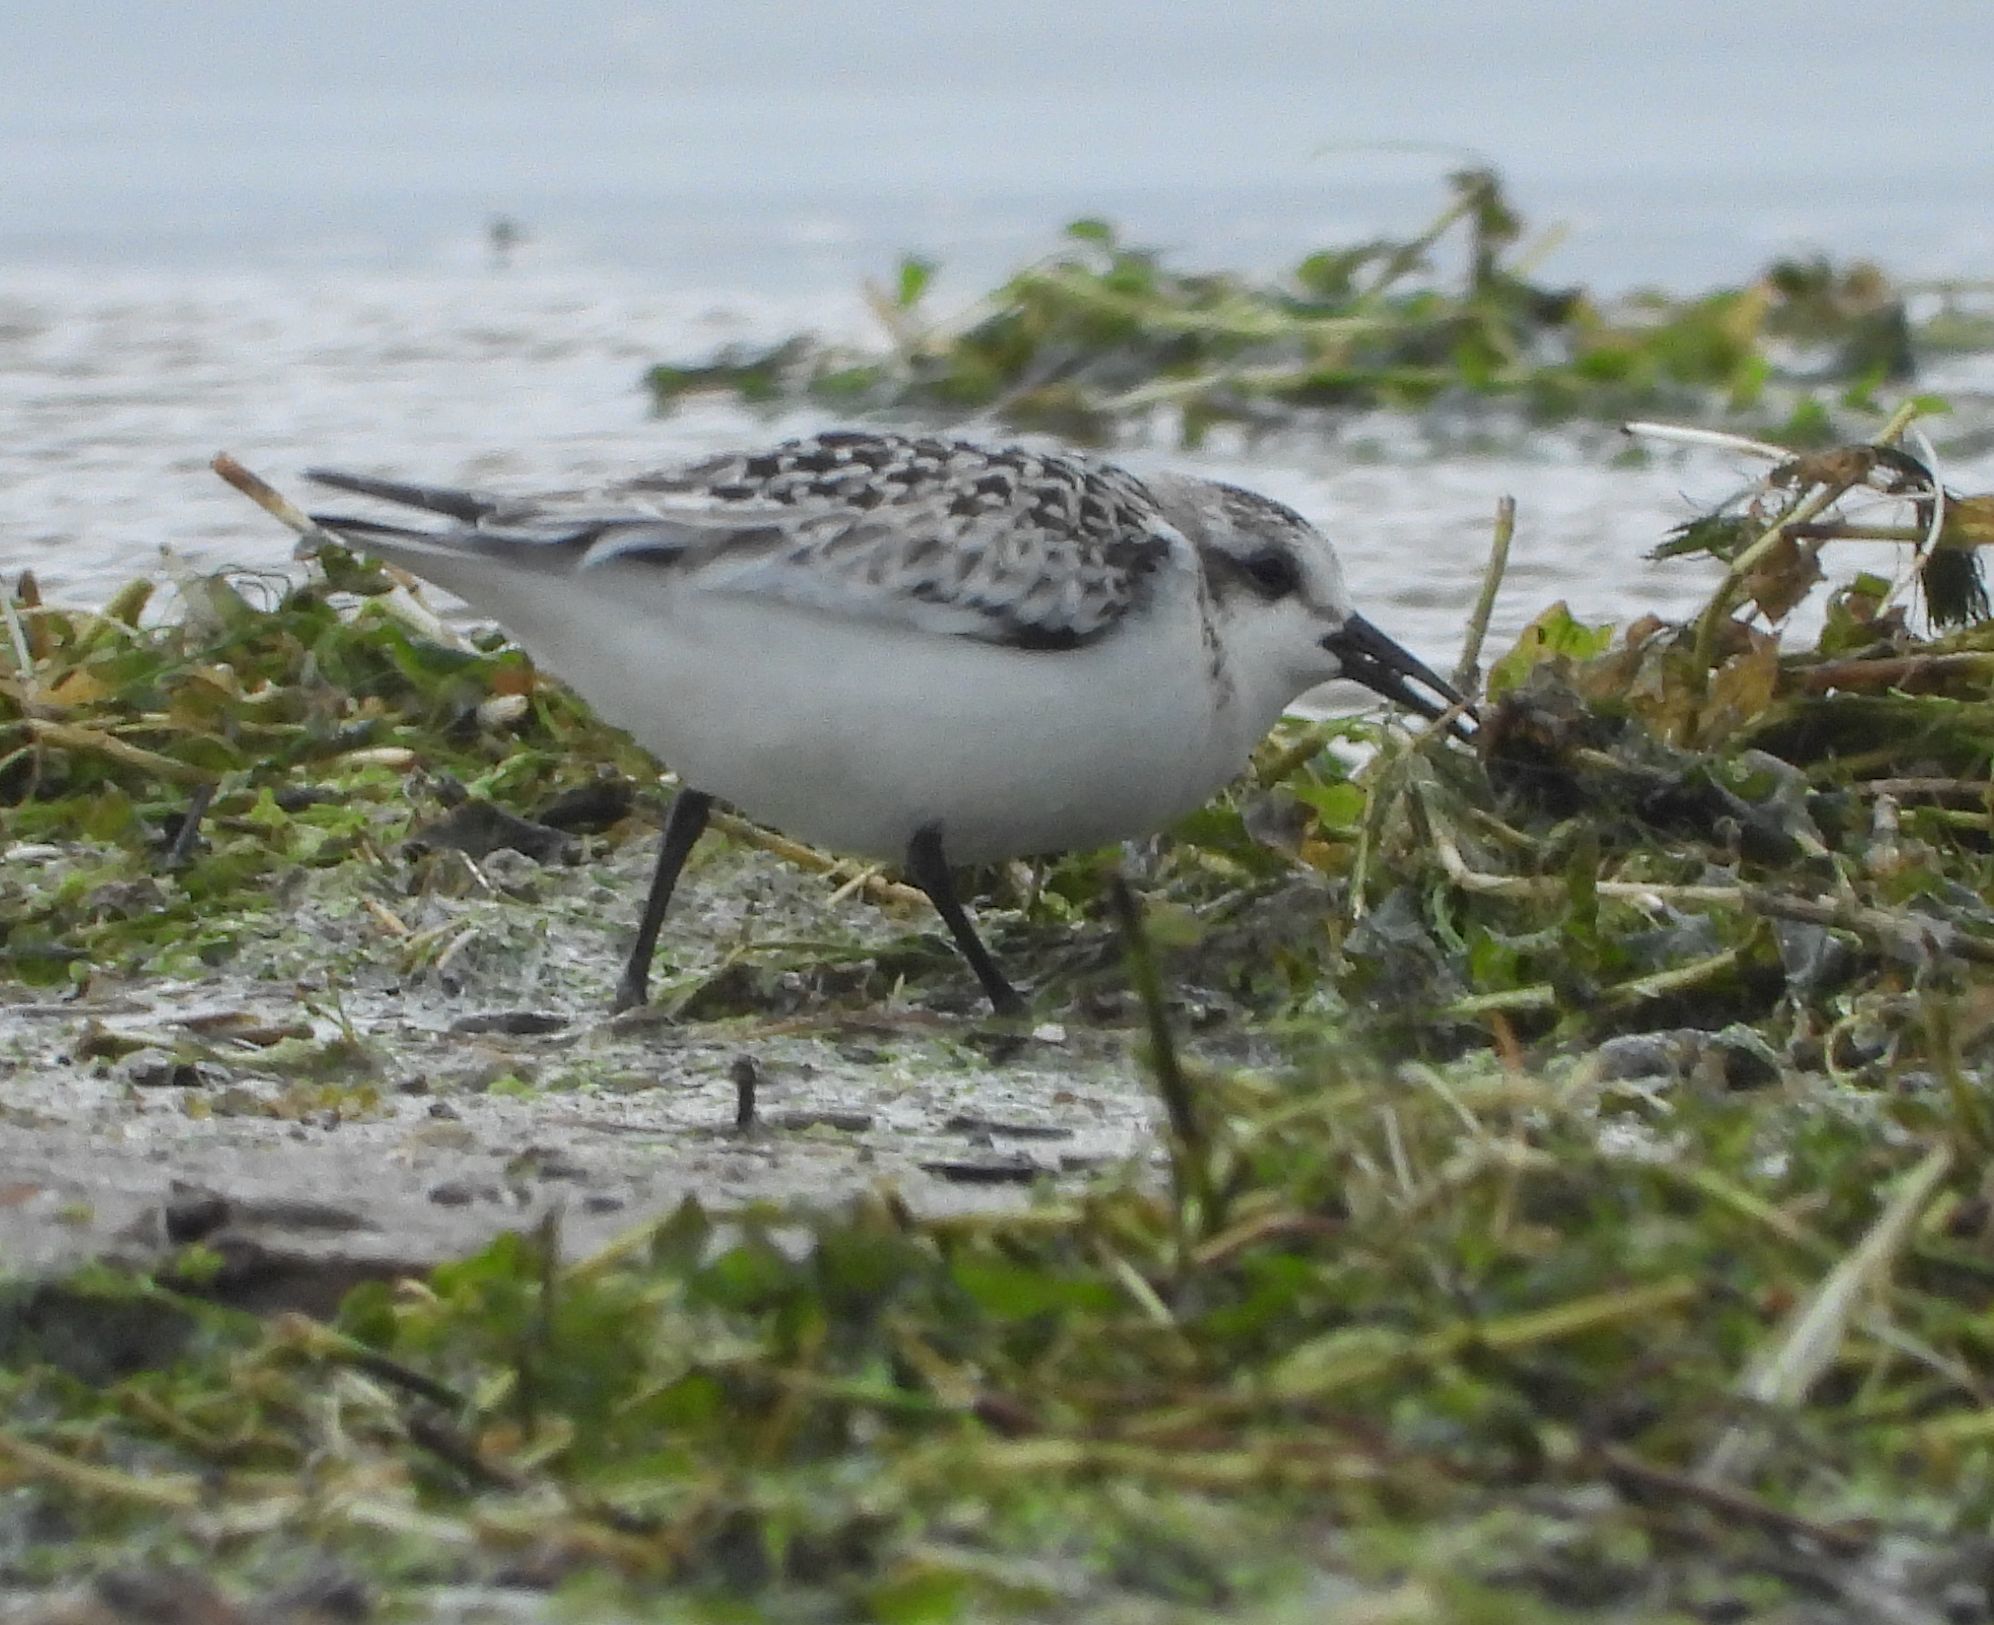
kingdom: Animalia
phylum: Chordata
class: Aves
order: Charadriiformes
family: Scolopacidae
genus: Calidris
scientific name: Calidris alba
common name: Sanderling
